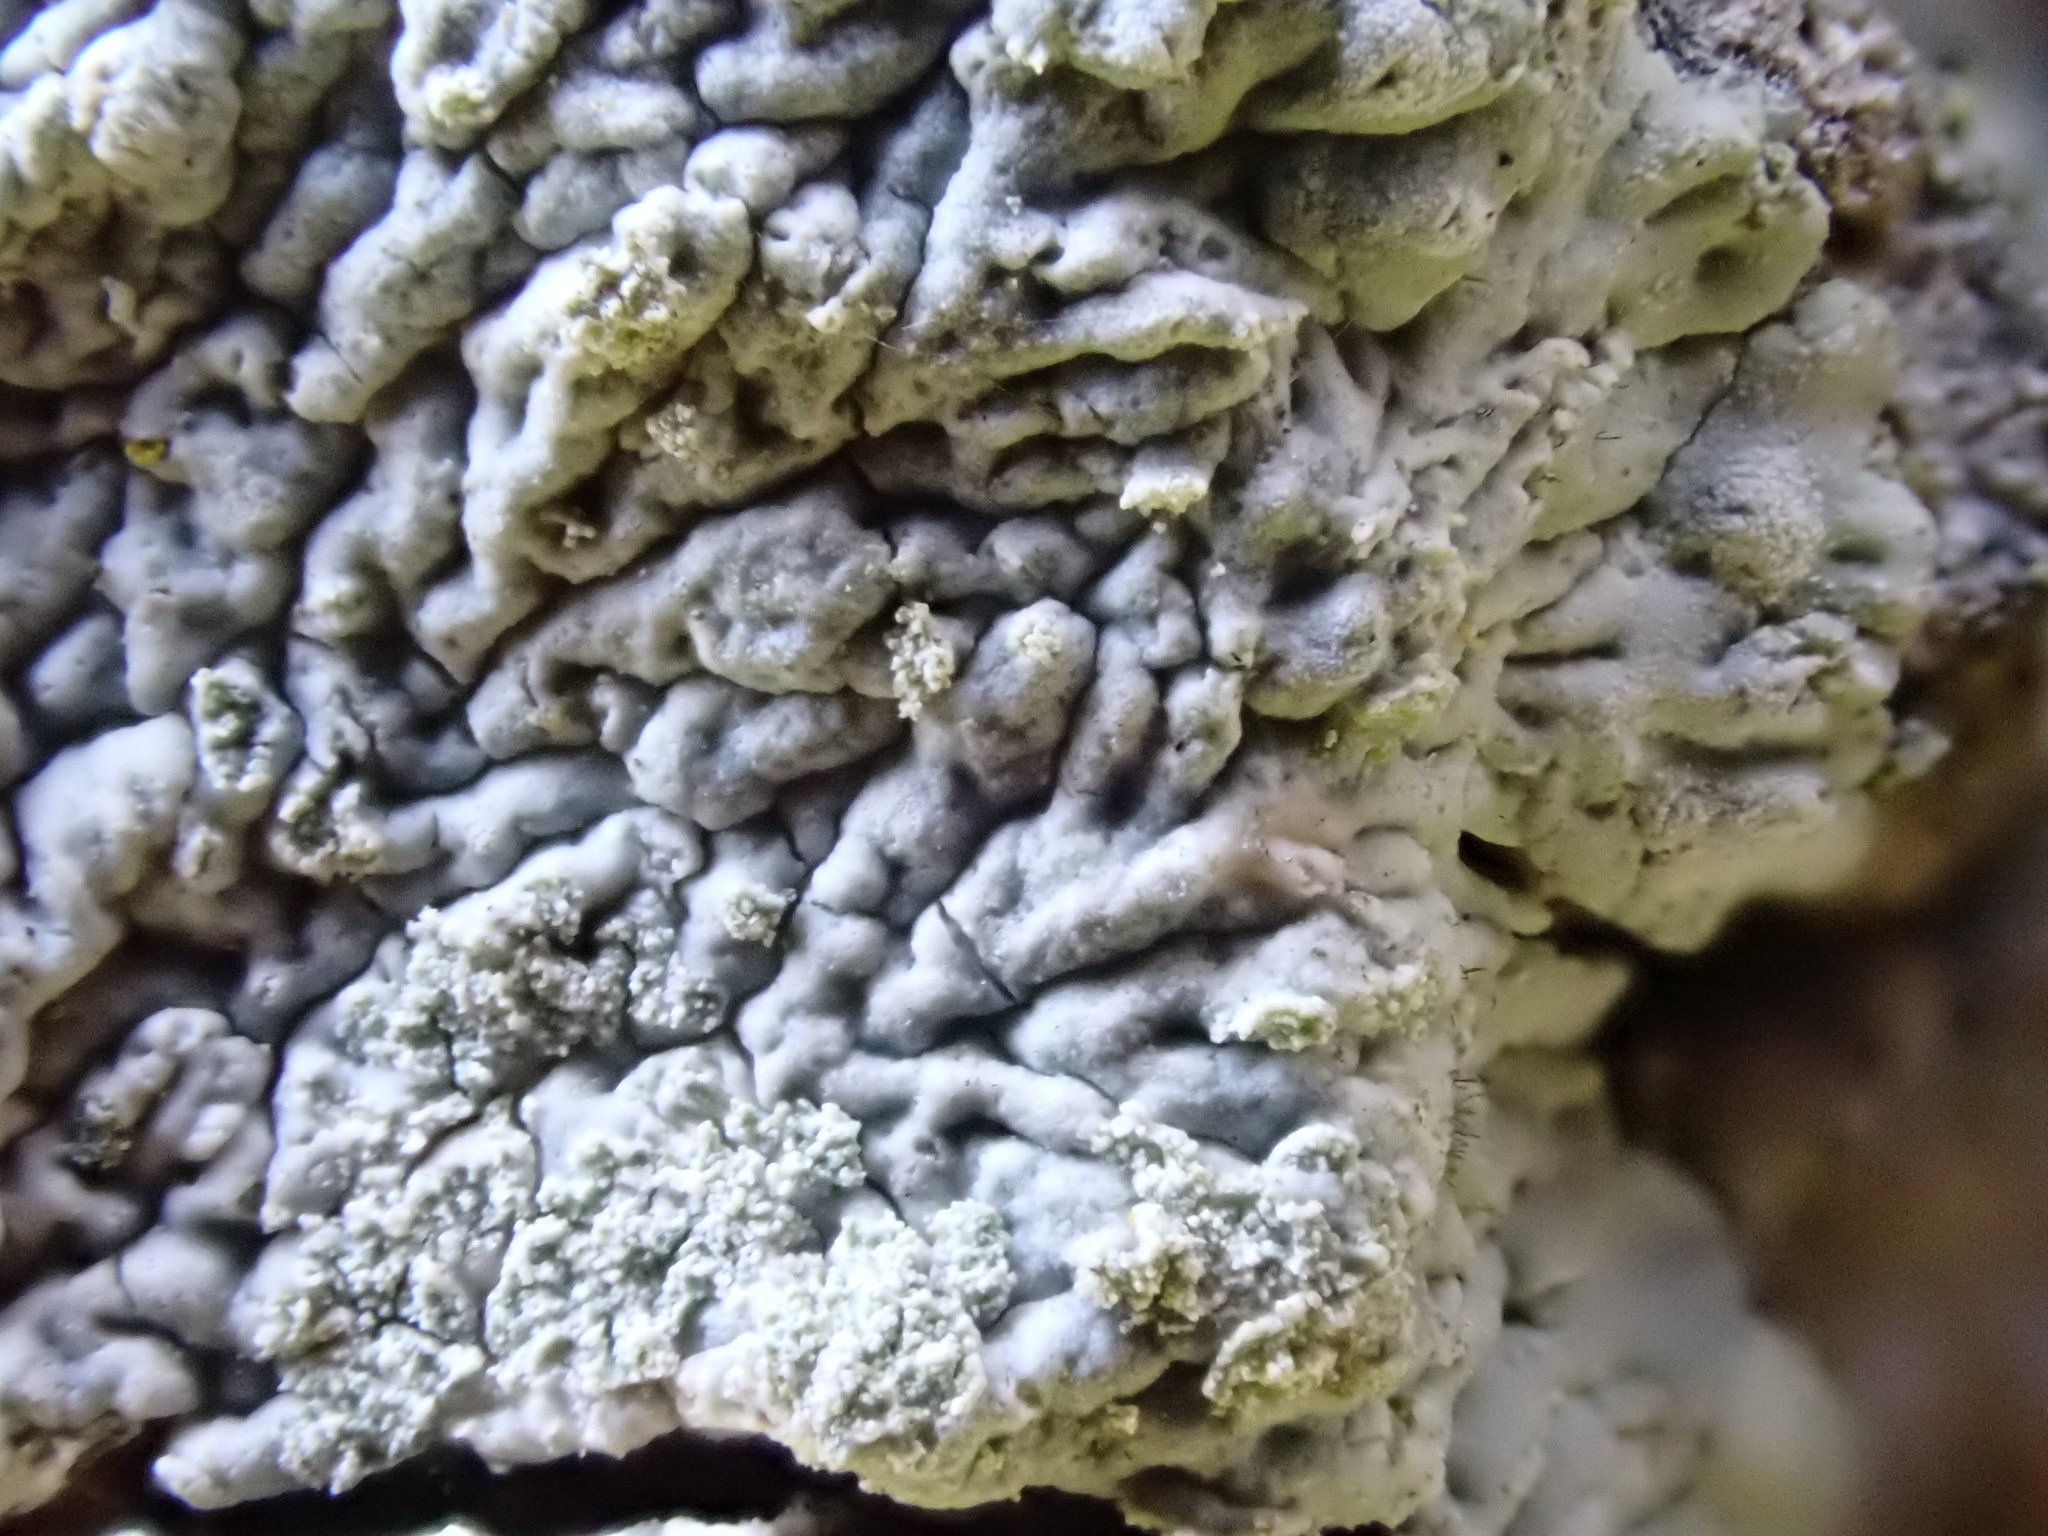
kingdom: Fungi
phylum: Ascomycota
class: Lecanoromycetes
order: Caliciales
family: Caliciaceae
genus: Diploicia
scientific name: Diploicia canescens
